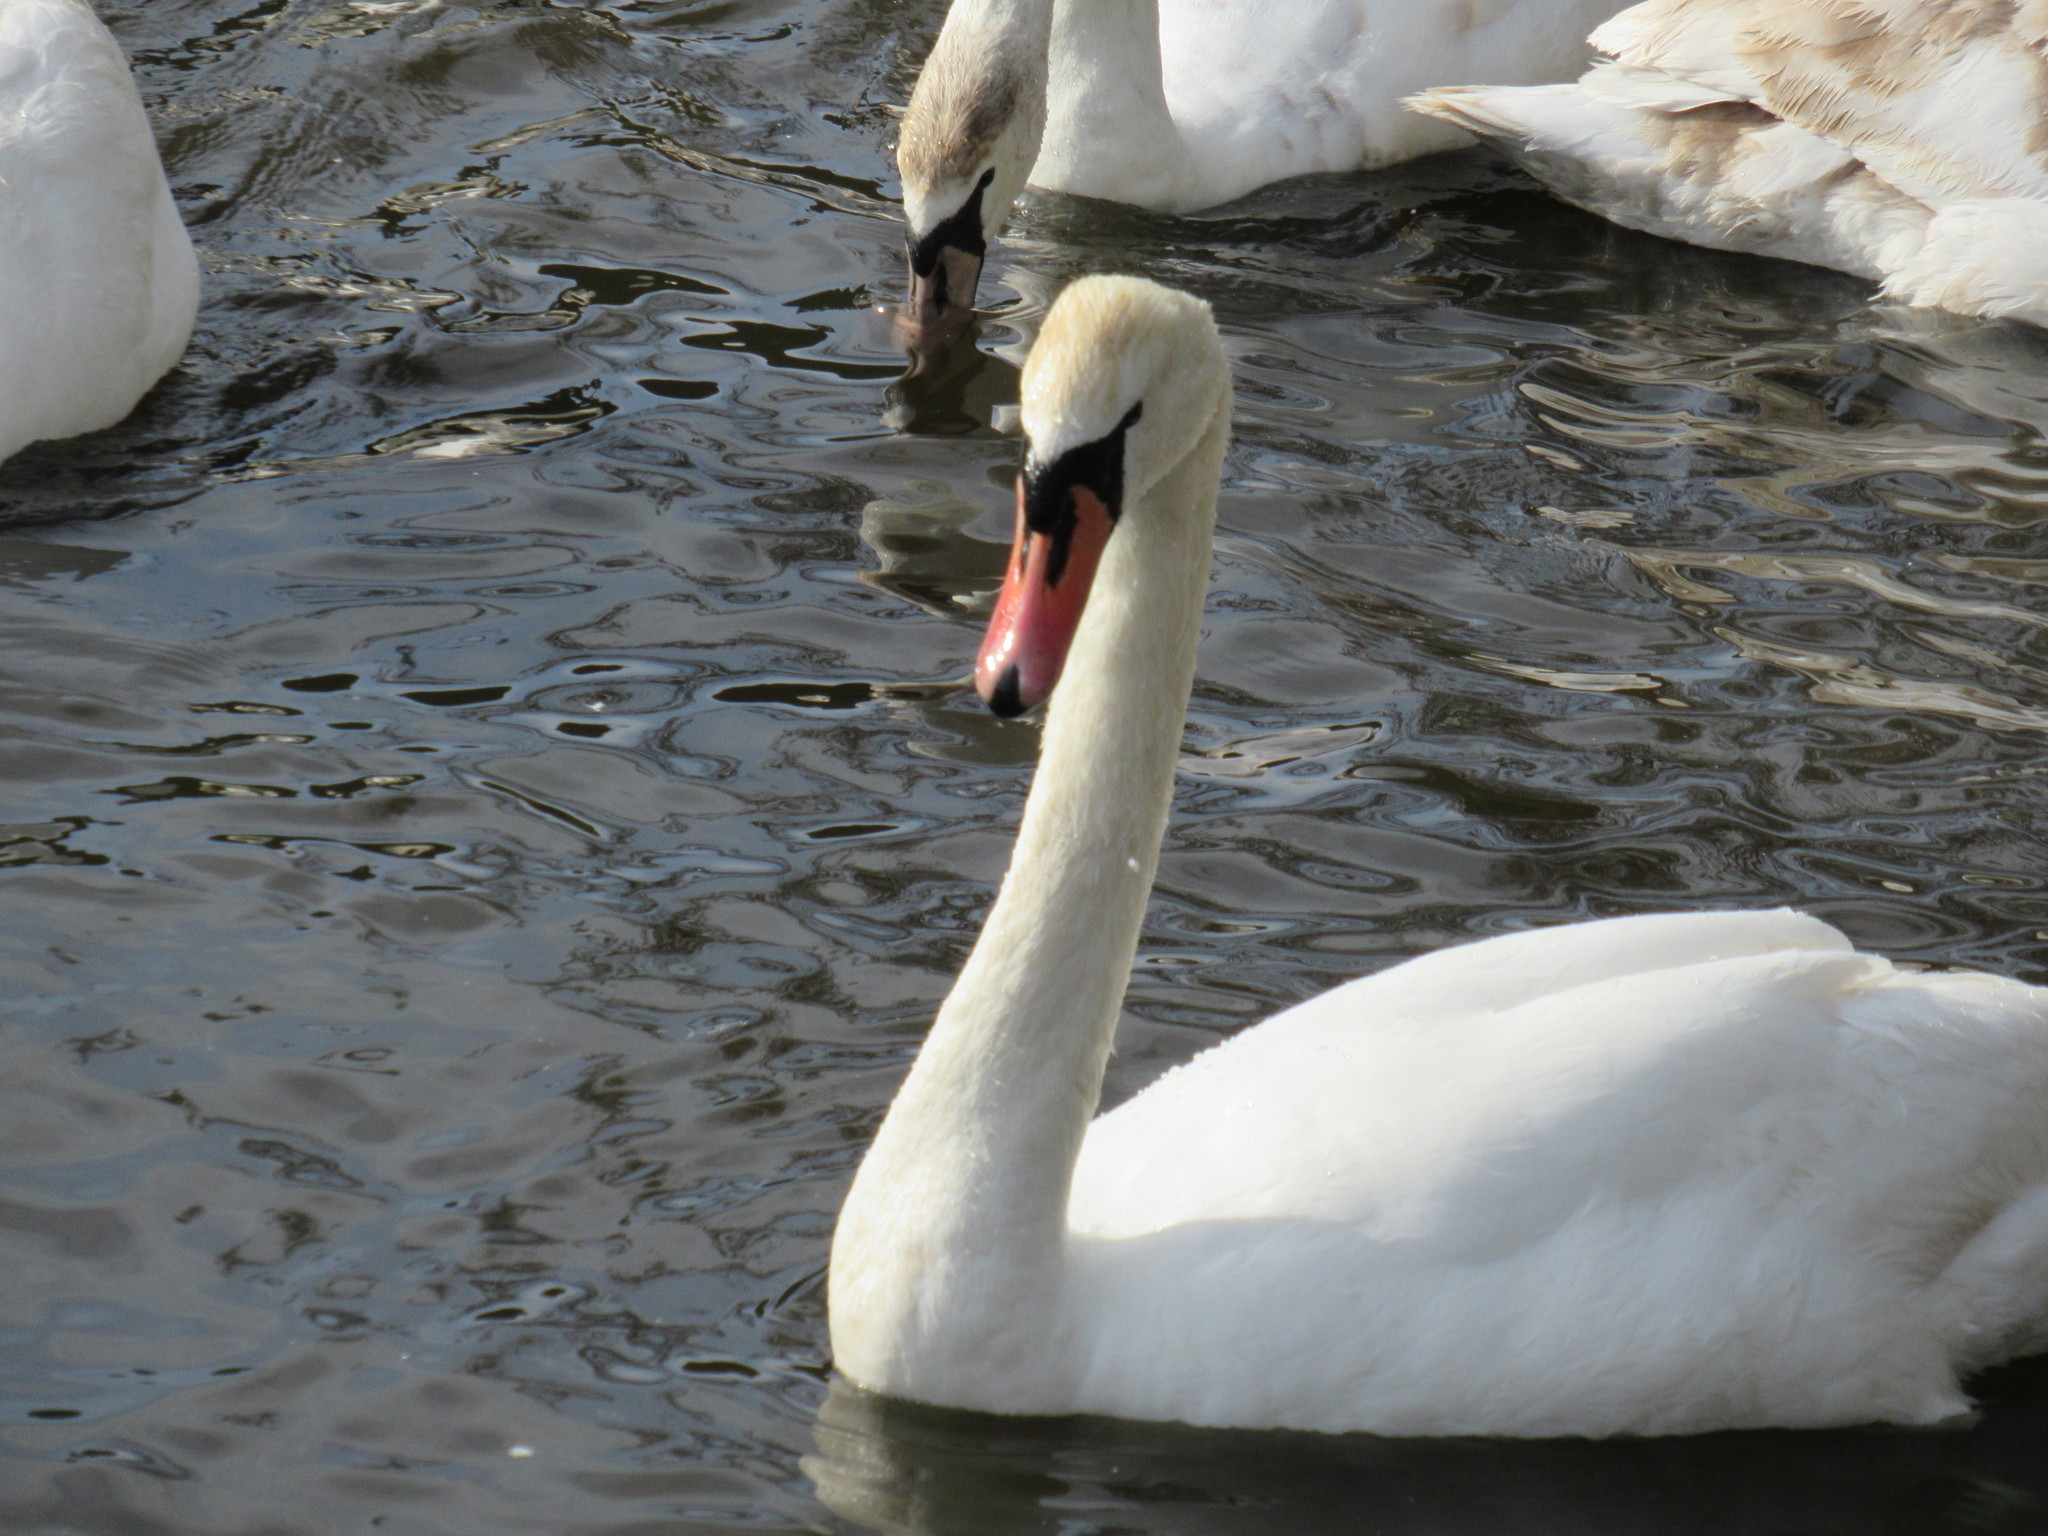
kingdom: Animalia
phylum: Chordata
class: Aves
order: Anseriformes
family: Anatidae
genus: Cygnus
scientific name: Cygnus olor
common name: Mute swan
